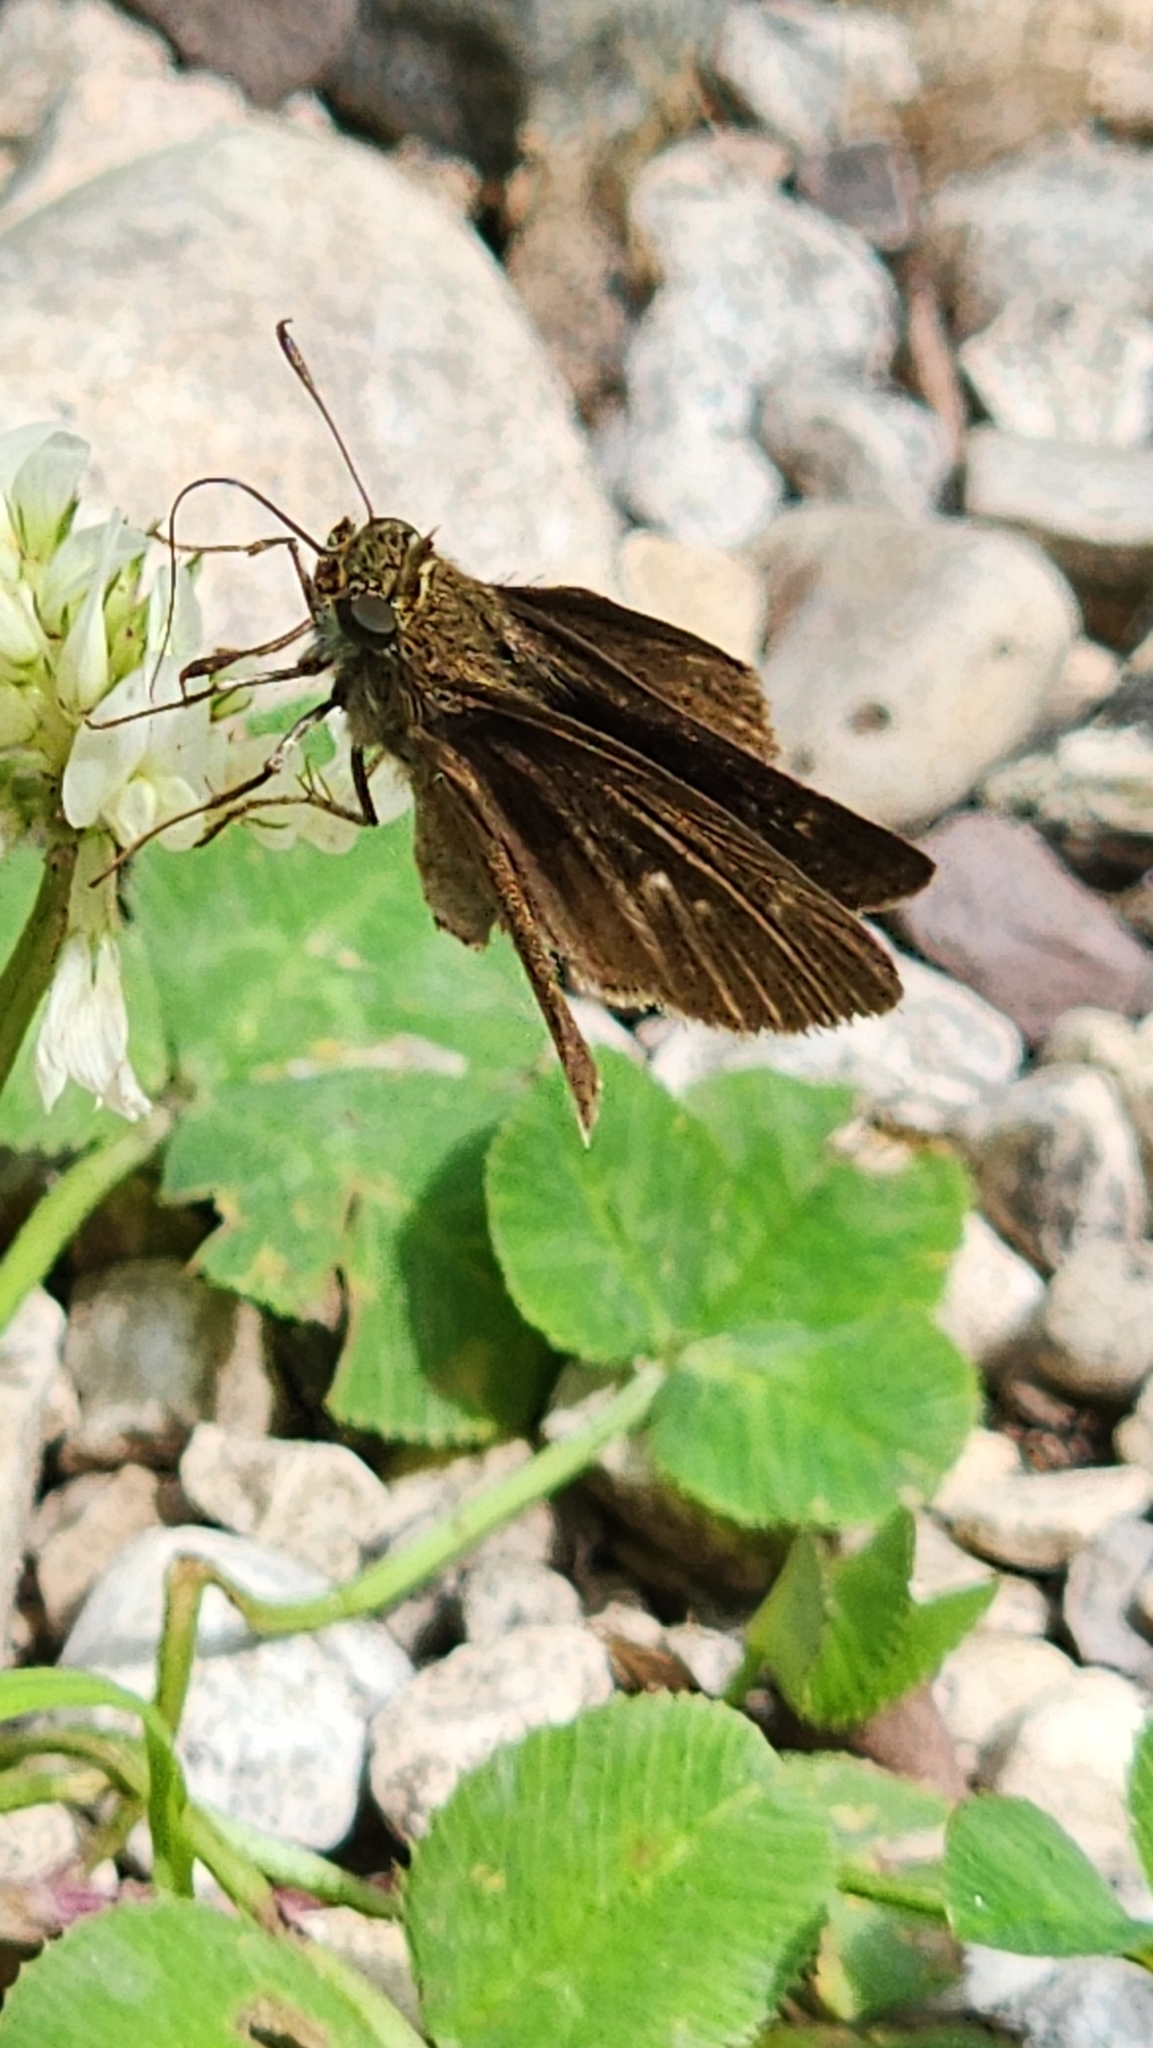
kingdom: Animalia
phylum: Arthropoda
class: Insecta
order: Lepidoptera
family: Hesperiidae
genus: Euphyes
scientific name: Euphyes vestris
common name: Dun skipper
